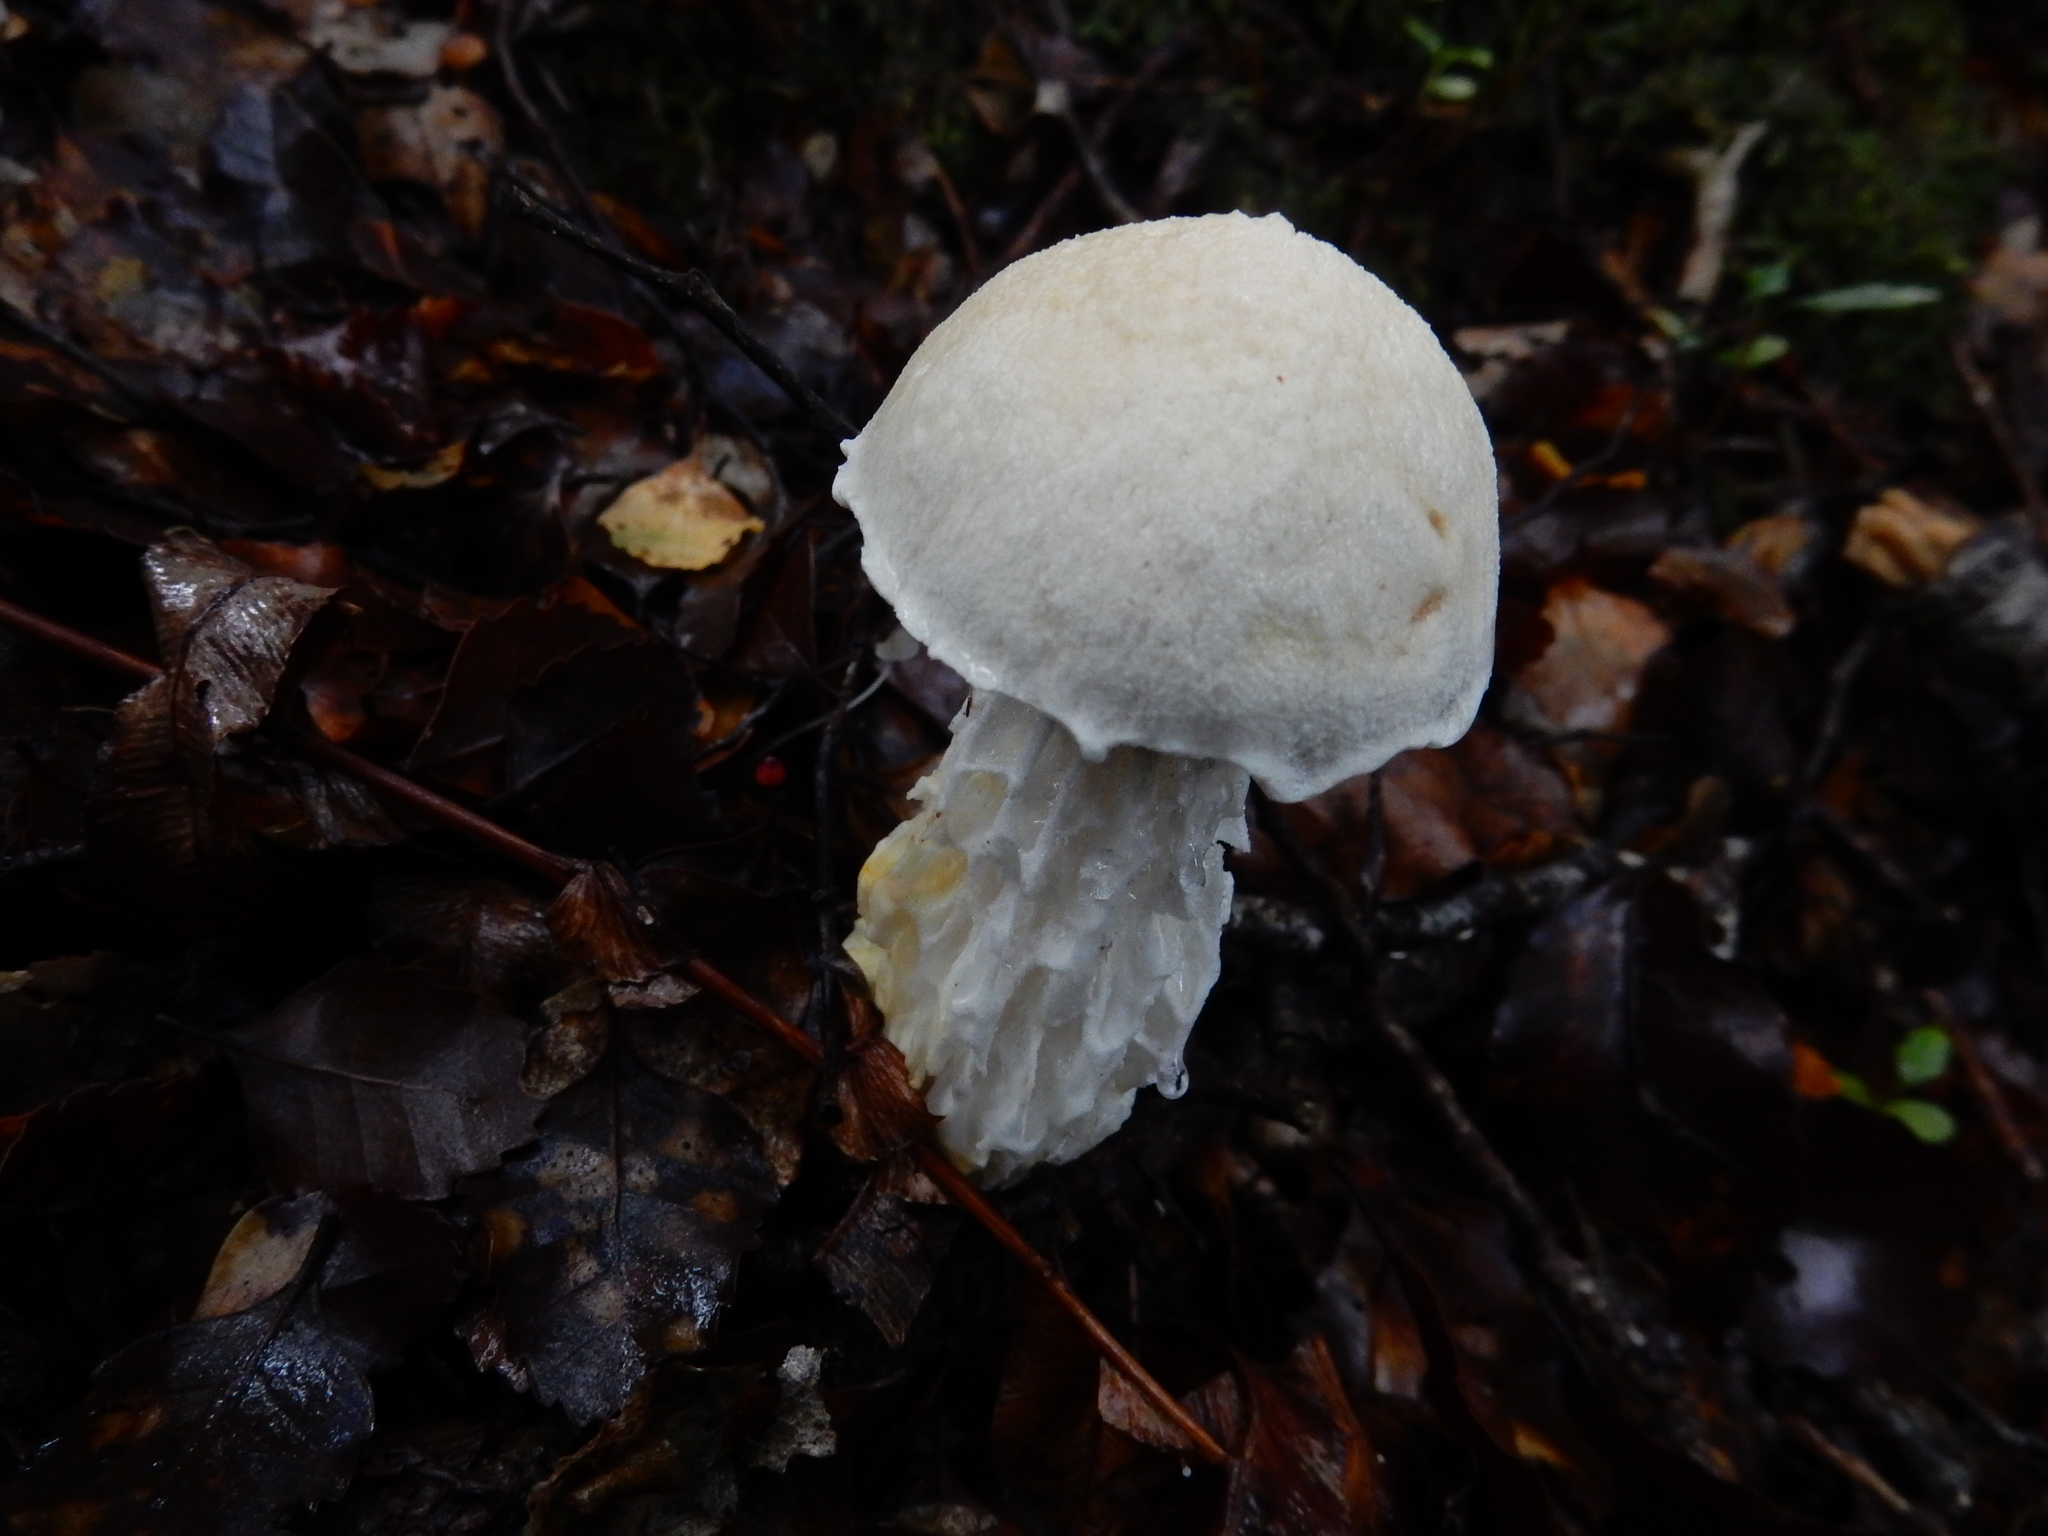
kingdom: Fungi
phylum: Basidiomycota
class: Agaricomycetes
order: Boletales
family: Boletaceae
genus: Fistulinella
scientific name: Fistulinella nivea
